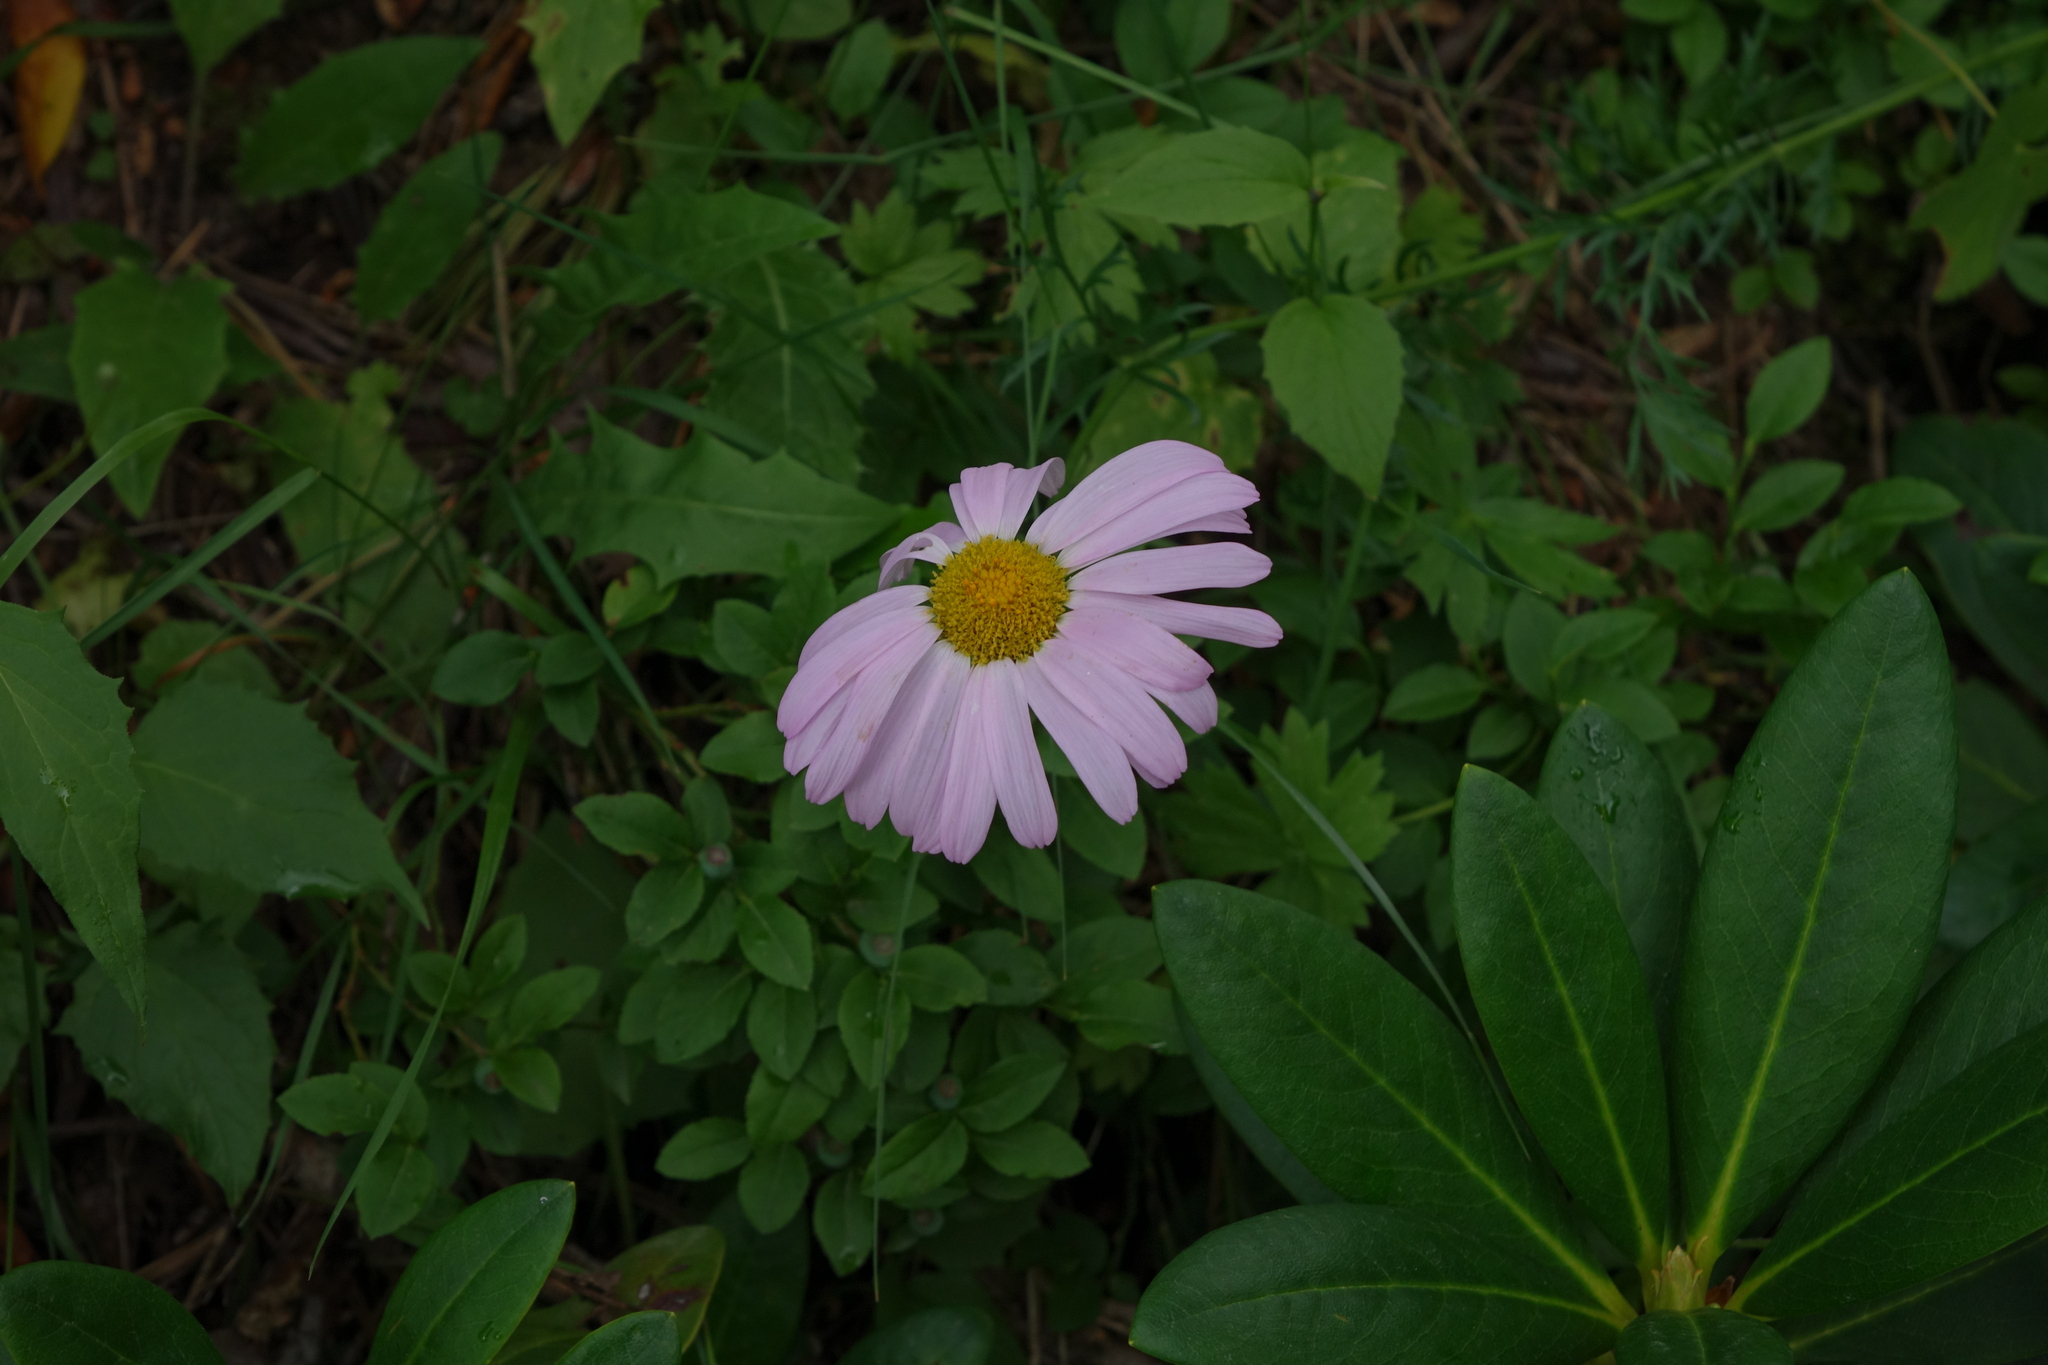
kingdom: Plantae
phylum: Tracheophyta
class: Magnoliopsida
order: Asterales
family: Asteraceae
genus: Tanacetum
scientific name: Tanacetum coccineum
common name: Pyrethum daisy
